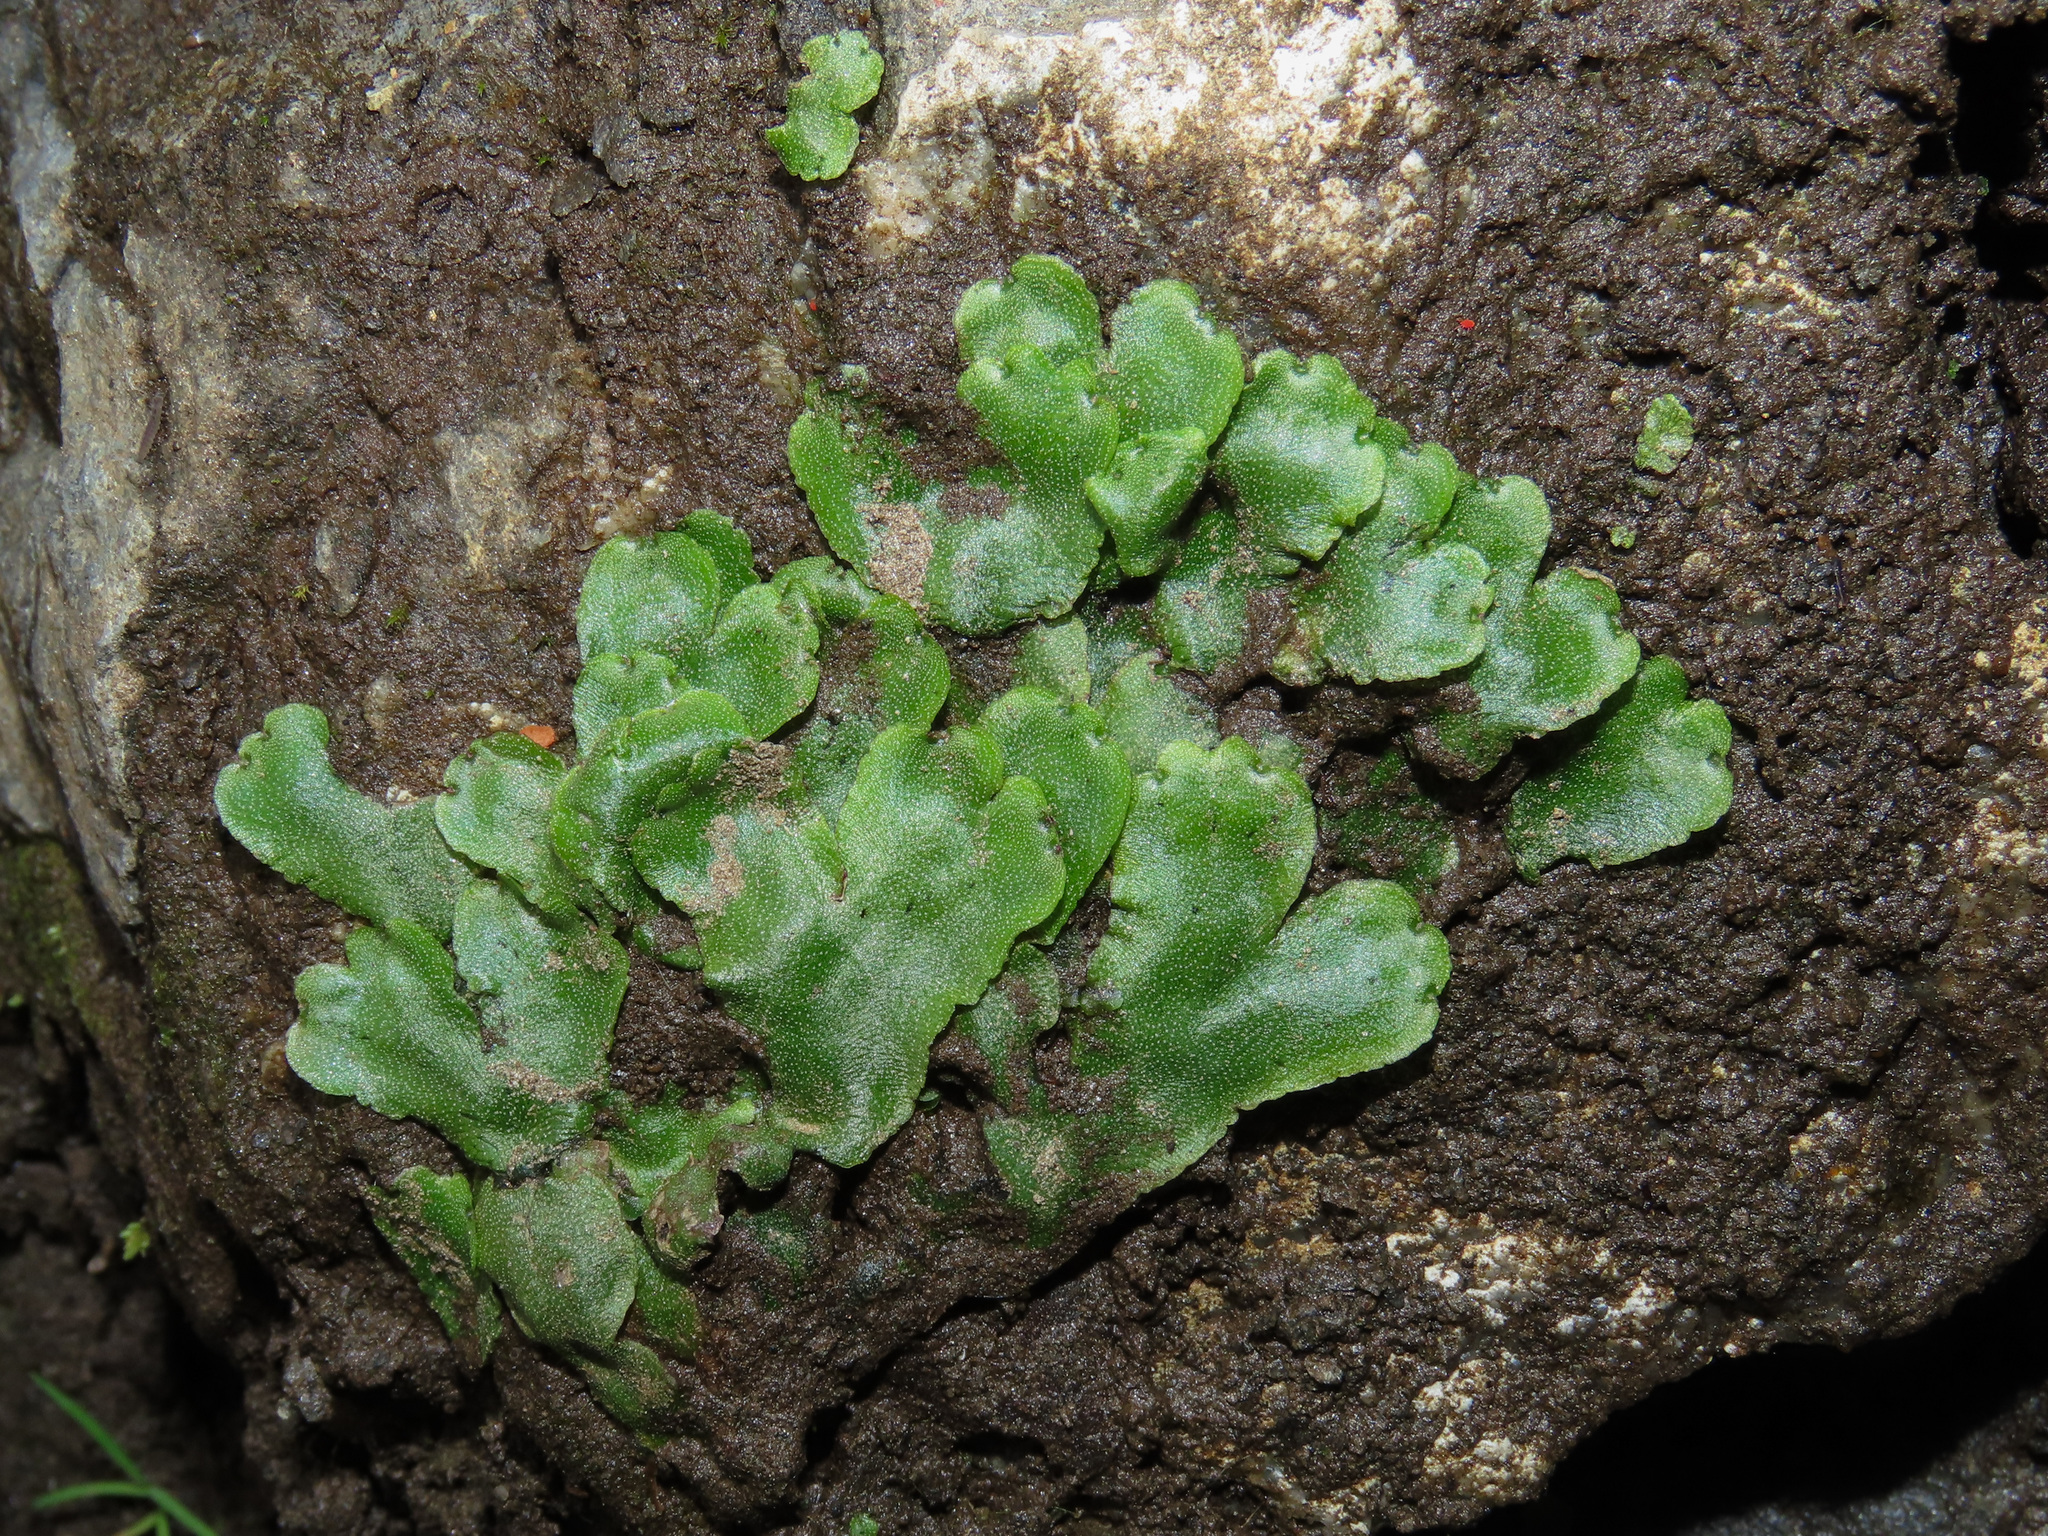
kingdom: Plantae
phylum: Marchantiophyta
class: Marchantiopsida
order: Marchantiales
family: Marchantiaceae
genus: Marchantia
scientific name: Marchantia quadrata
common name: Narrow mushroom-headed liverwort
